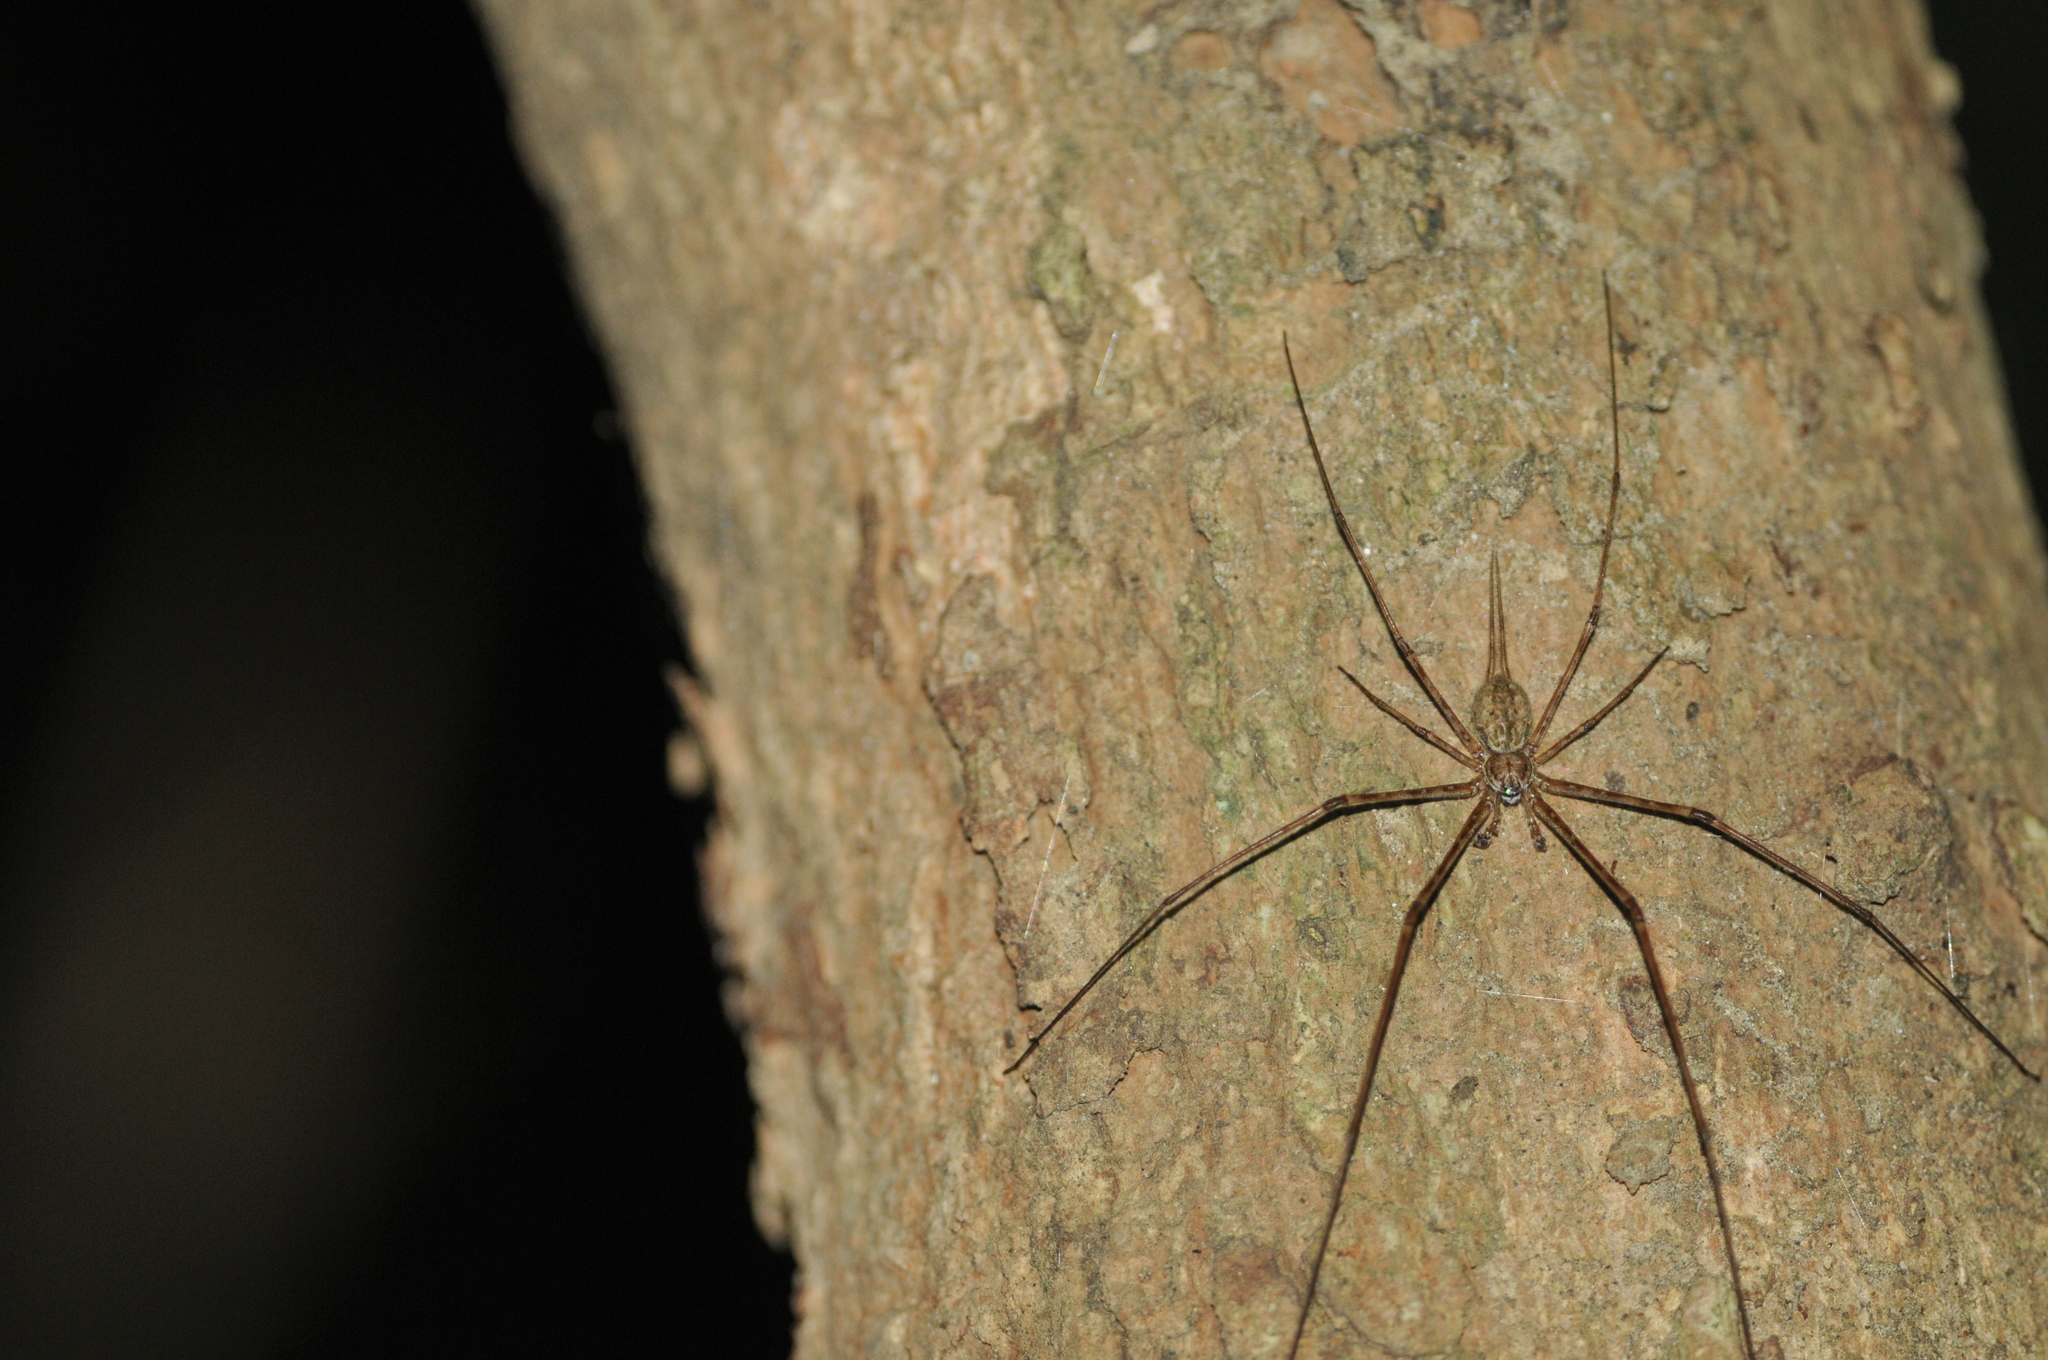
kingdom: Animalia
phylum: Arthropoda
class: Arachnida
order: Araneae
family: Hersiliidae
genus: Hersilia
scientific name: Hersilia striata
